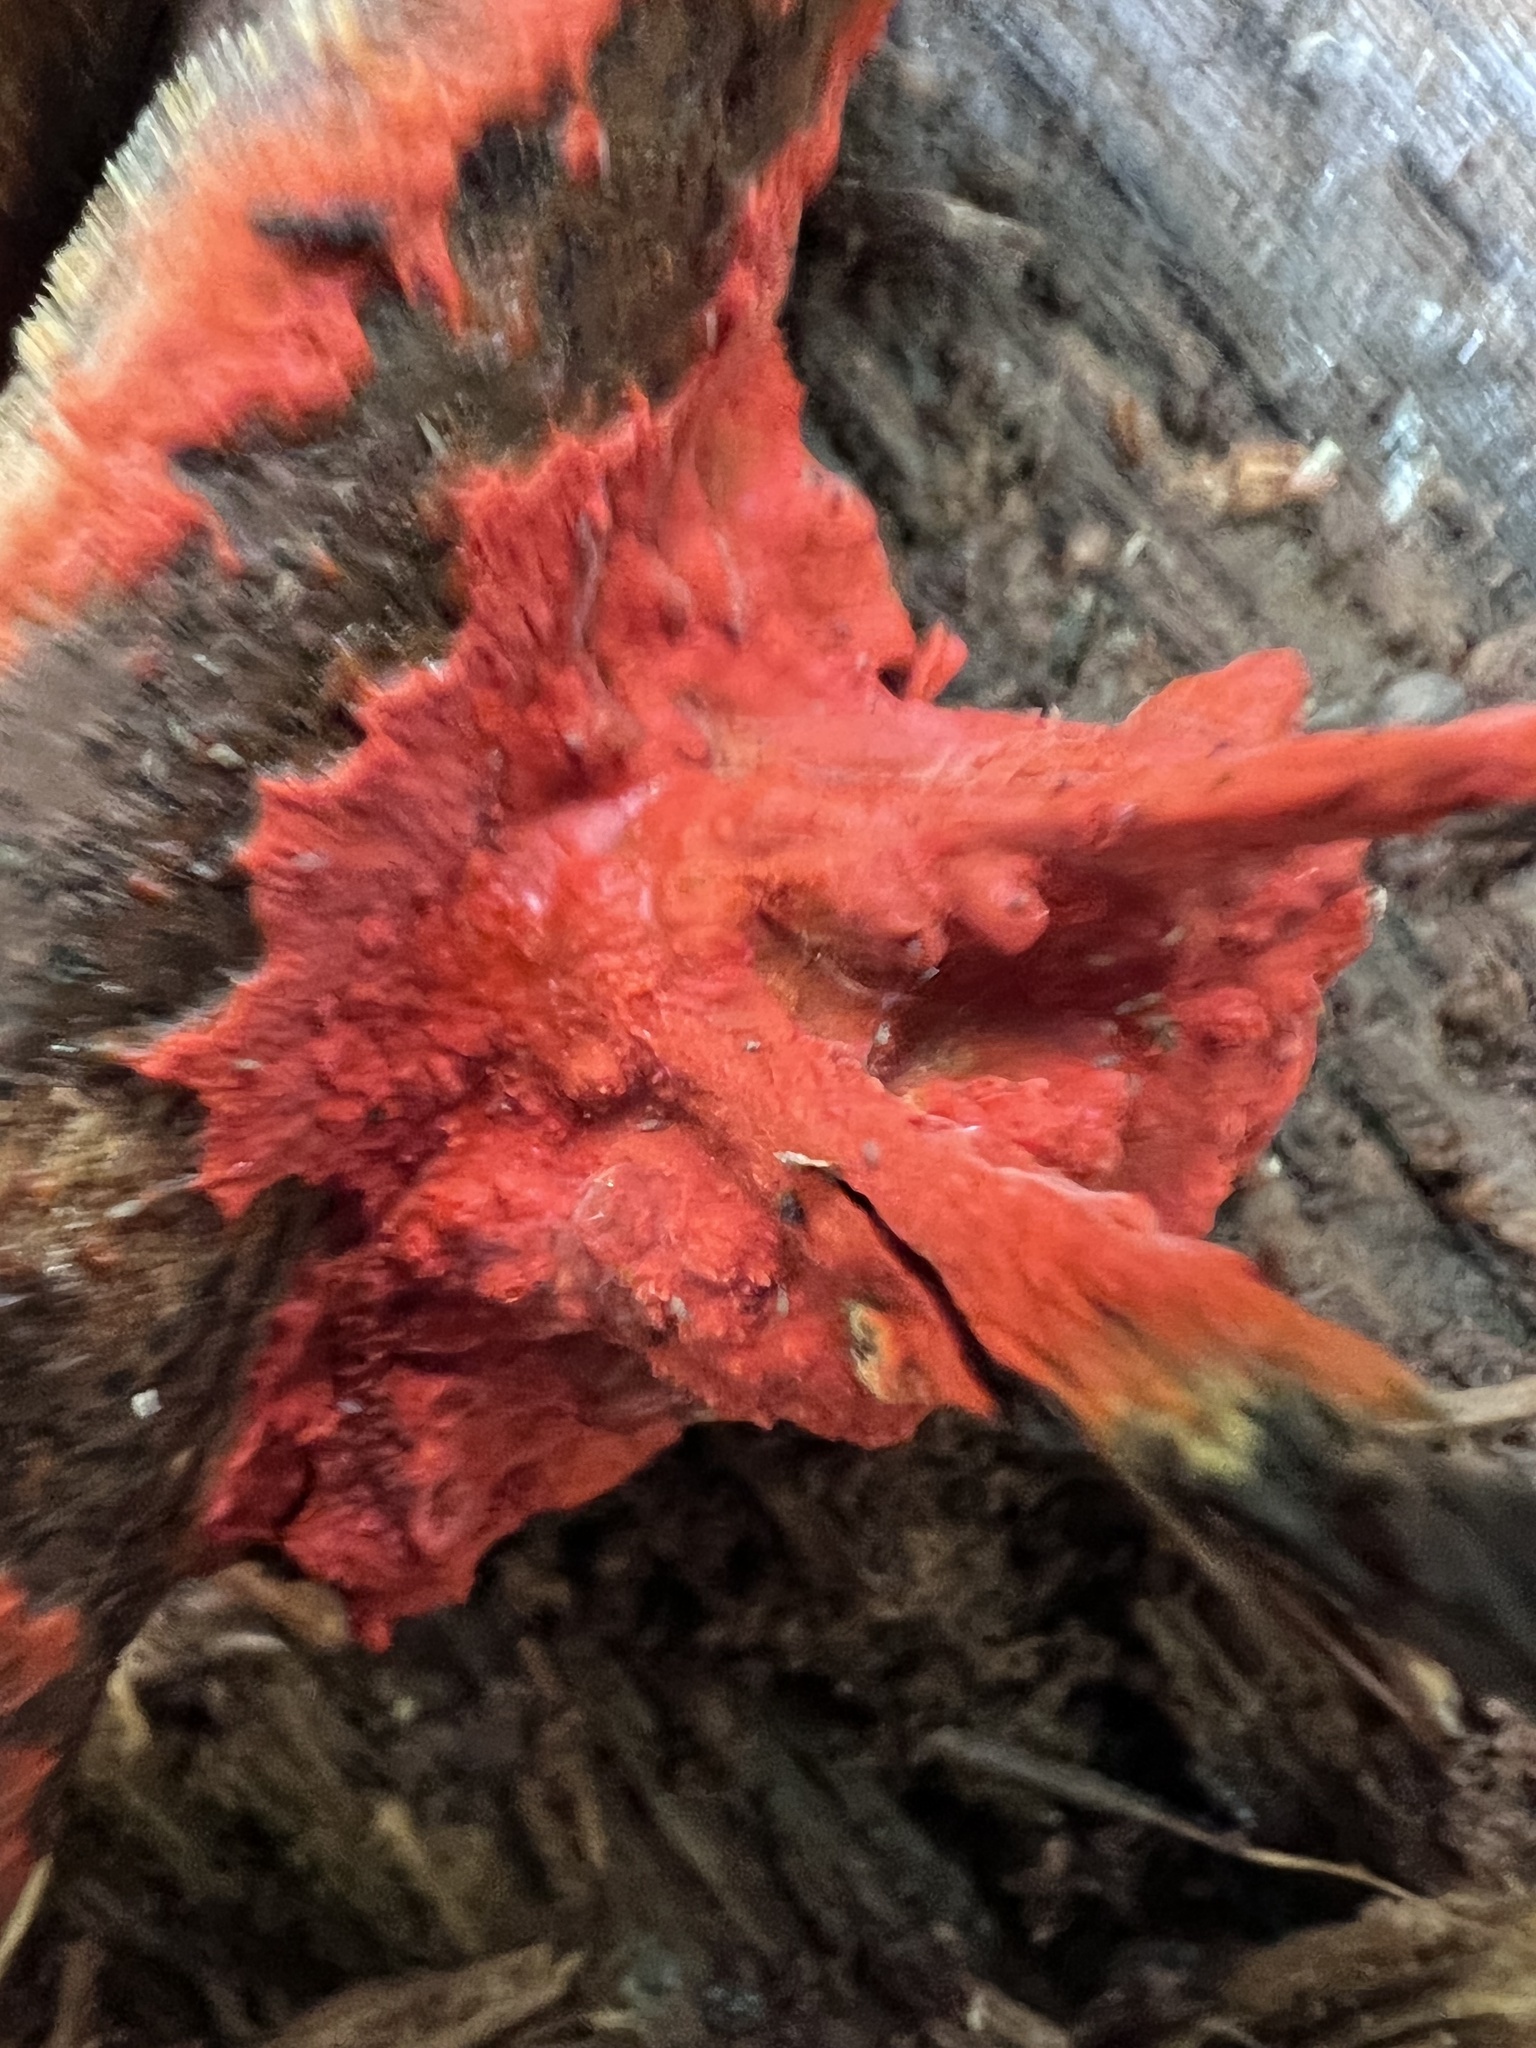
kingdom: Fungi
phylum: Basidiomycota
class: Agaricomycetes
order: Polyporales
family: Meruliaceae
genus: Phlebia
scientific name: Phlebia coccineofulva
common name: Scarlet waxcrust
